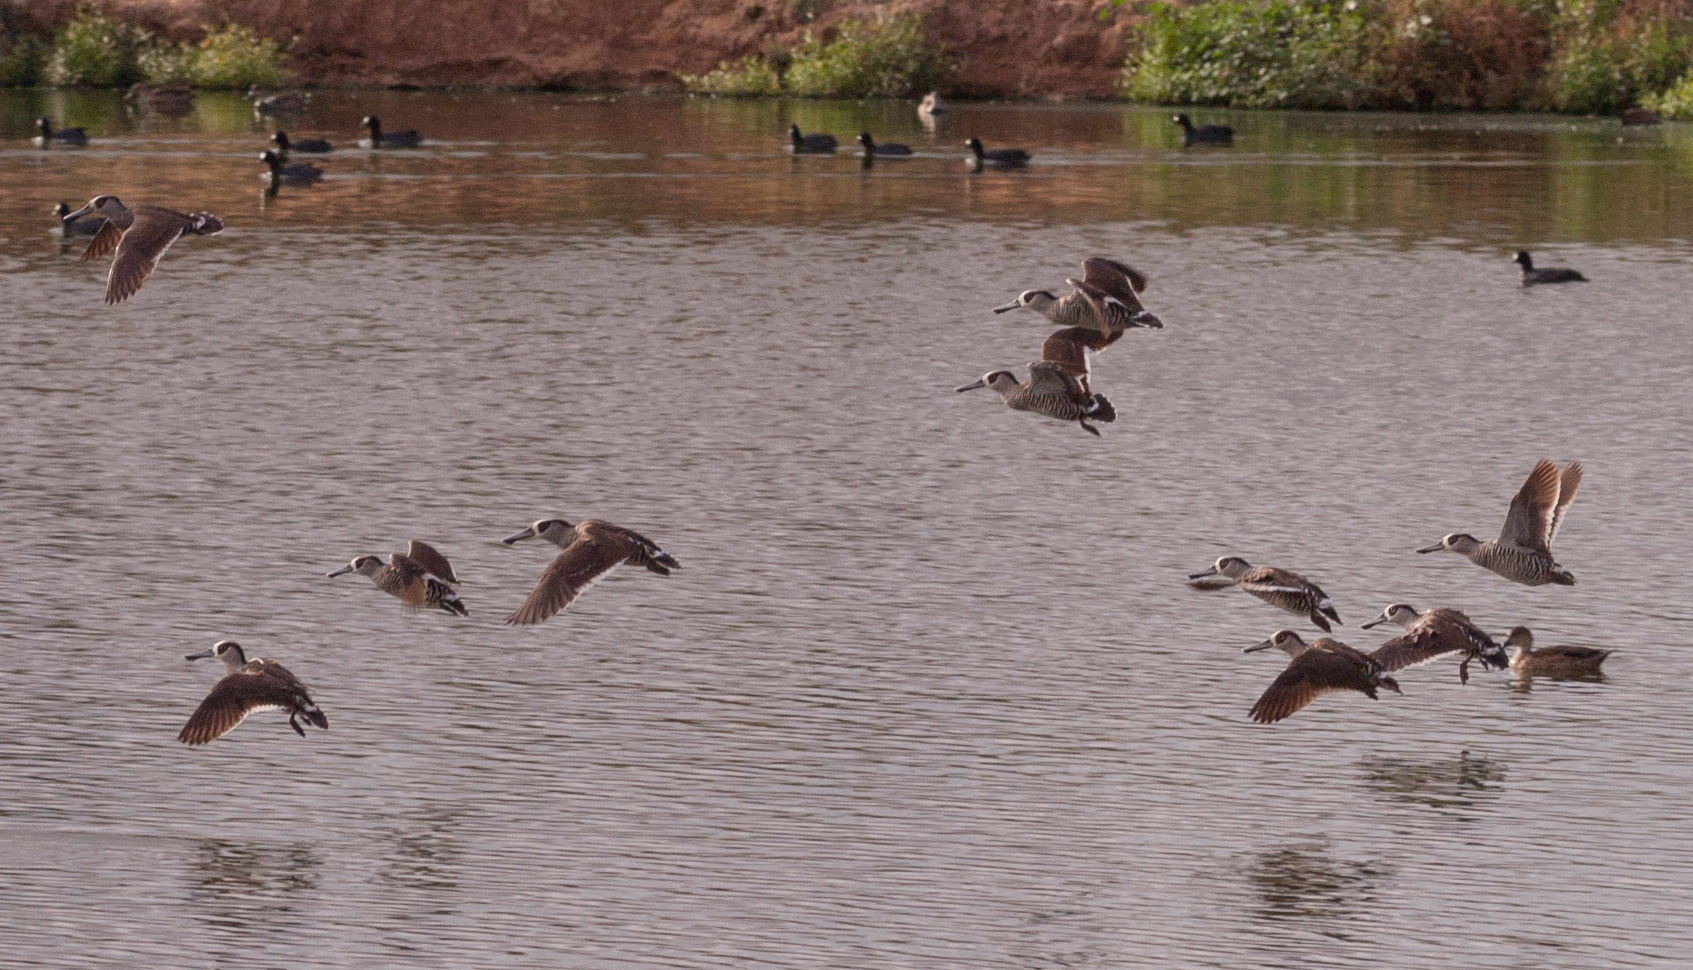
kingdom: Animalia
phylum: Chordata
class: Aves
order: Anseriformes
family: Anatidae
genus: Malacorhynchus
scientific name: Malacorhynchus membranaceus
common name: Pink-eared duck
